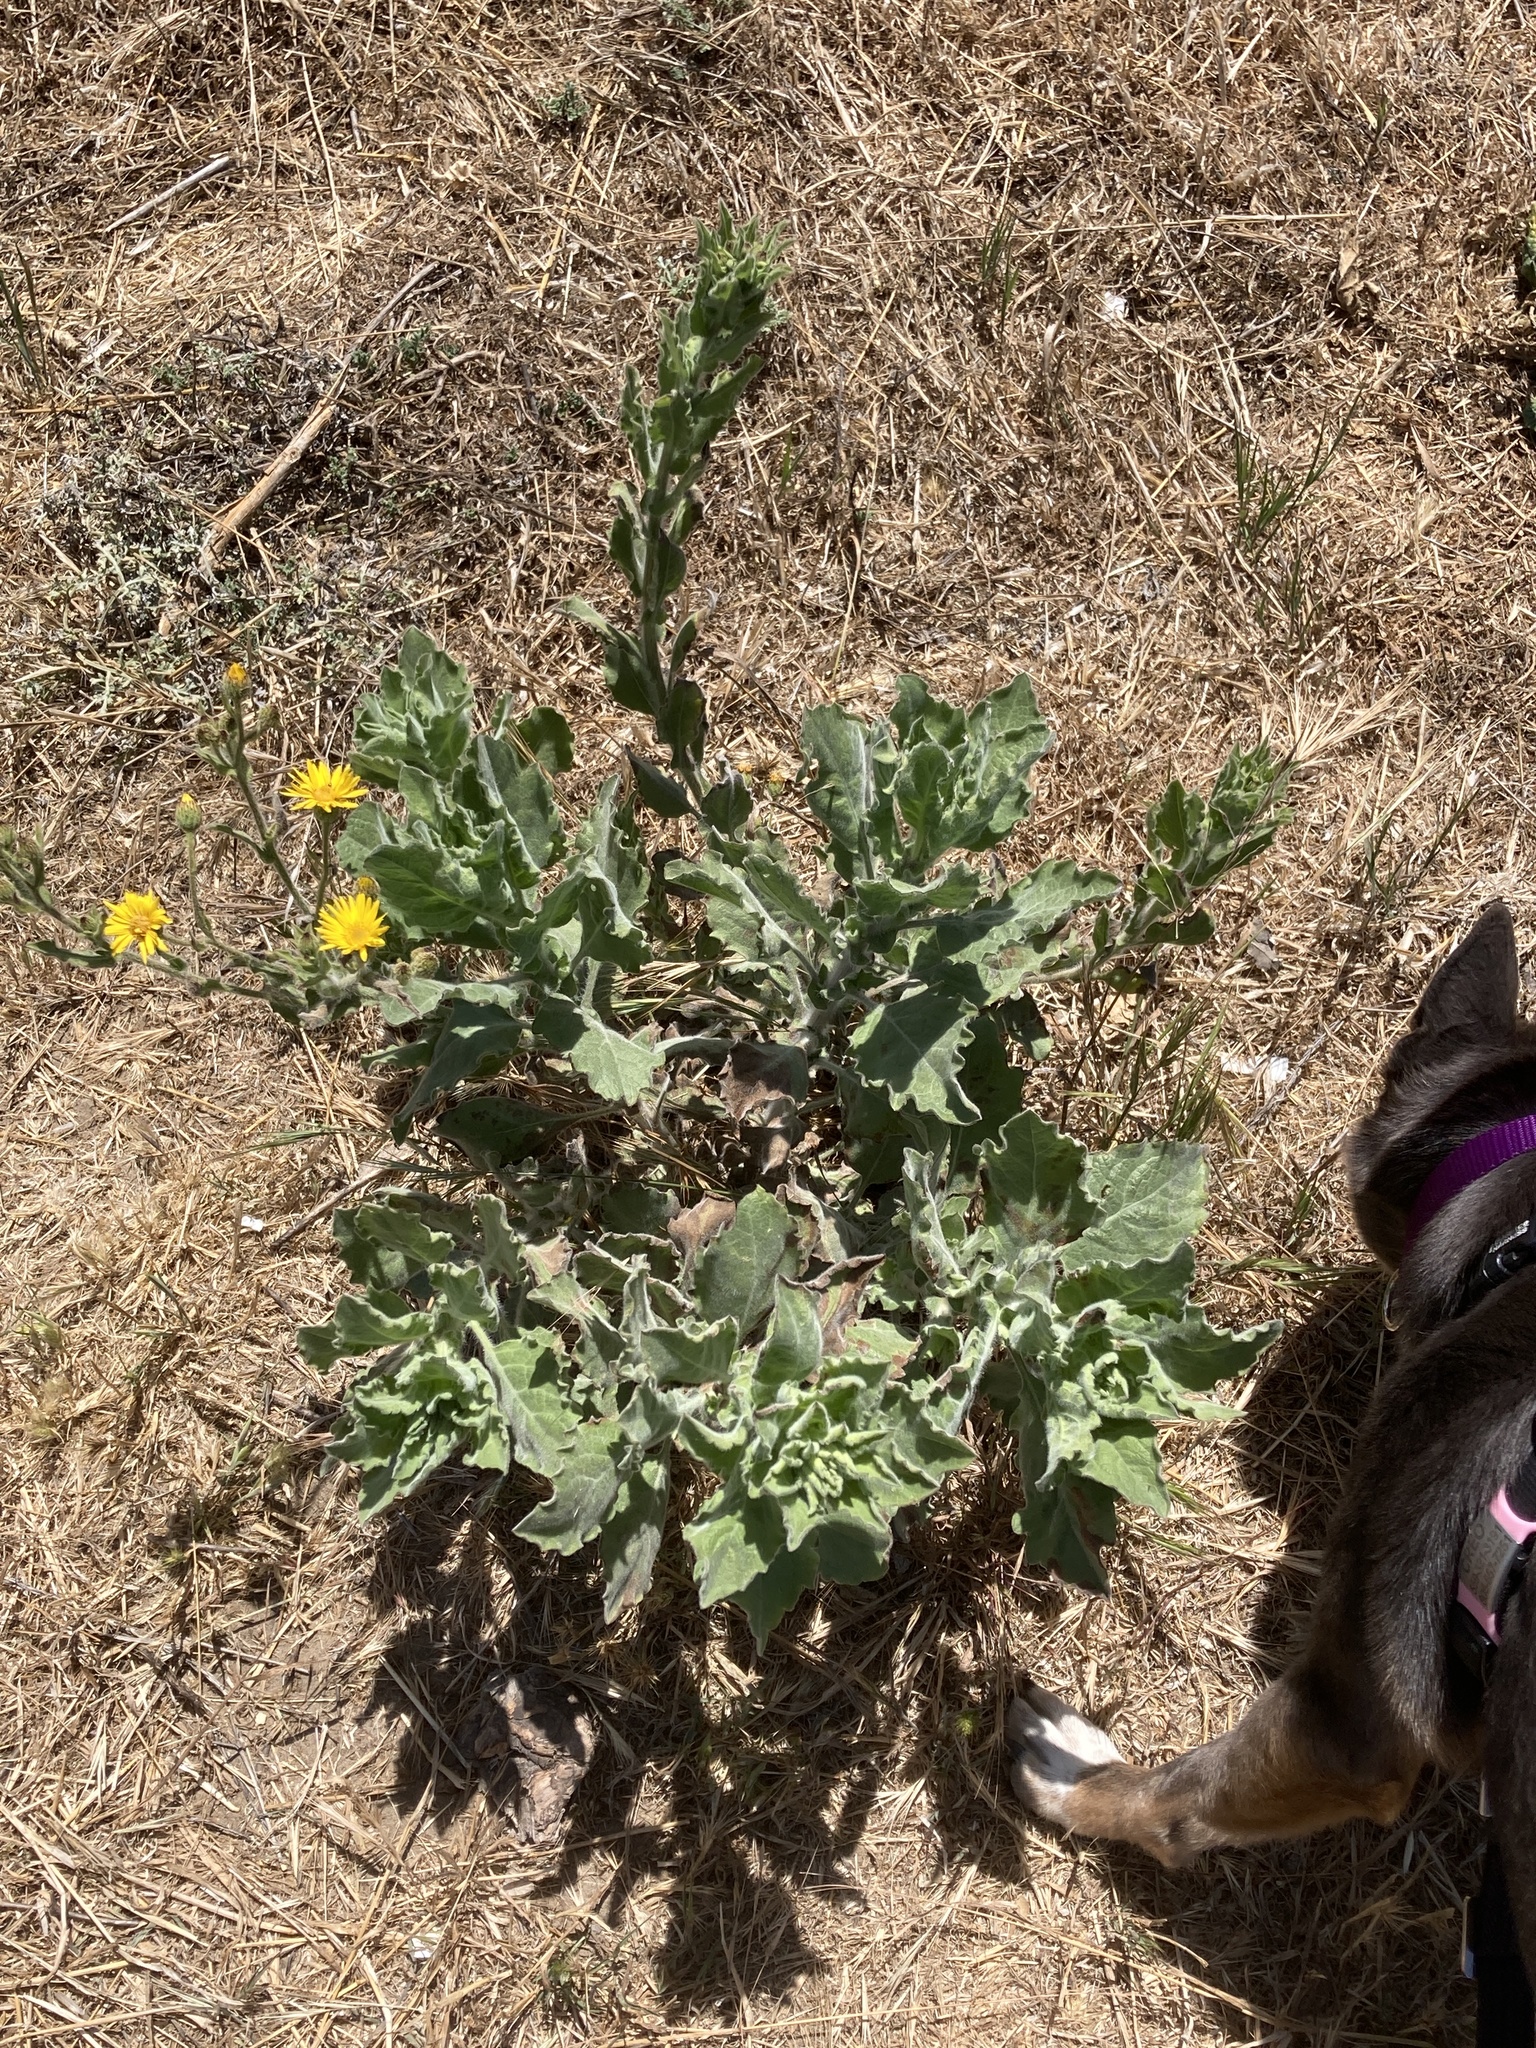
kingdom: Plantae
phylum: Tracheophyta
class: Magnoliopsida
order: Asterales
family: Asteraceae
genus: Heterotheca
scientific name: Heterotheca grandiflora
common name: Telegraphweed
